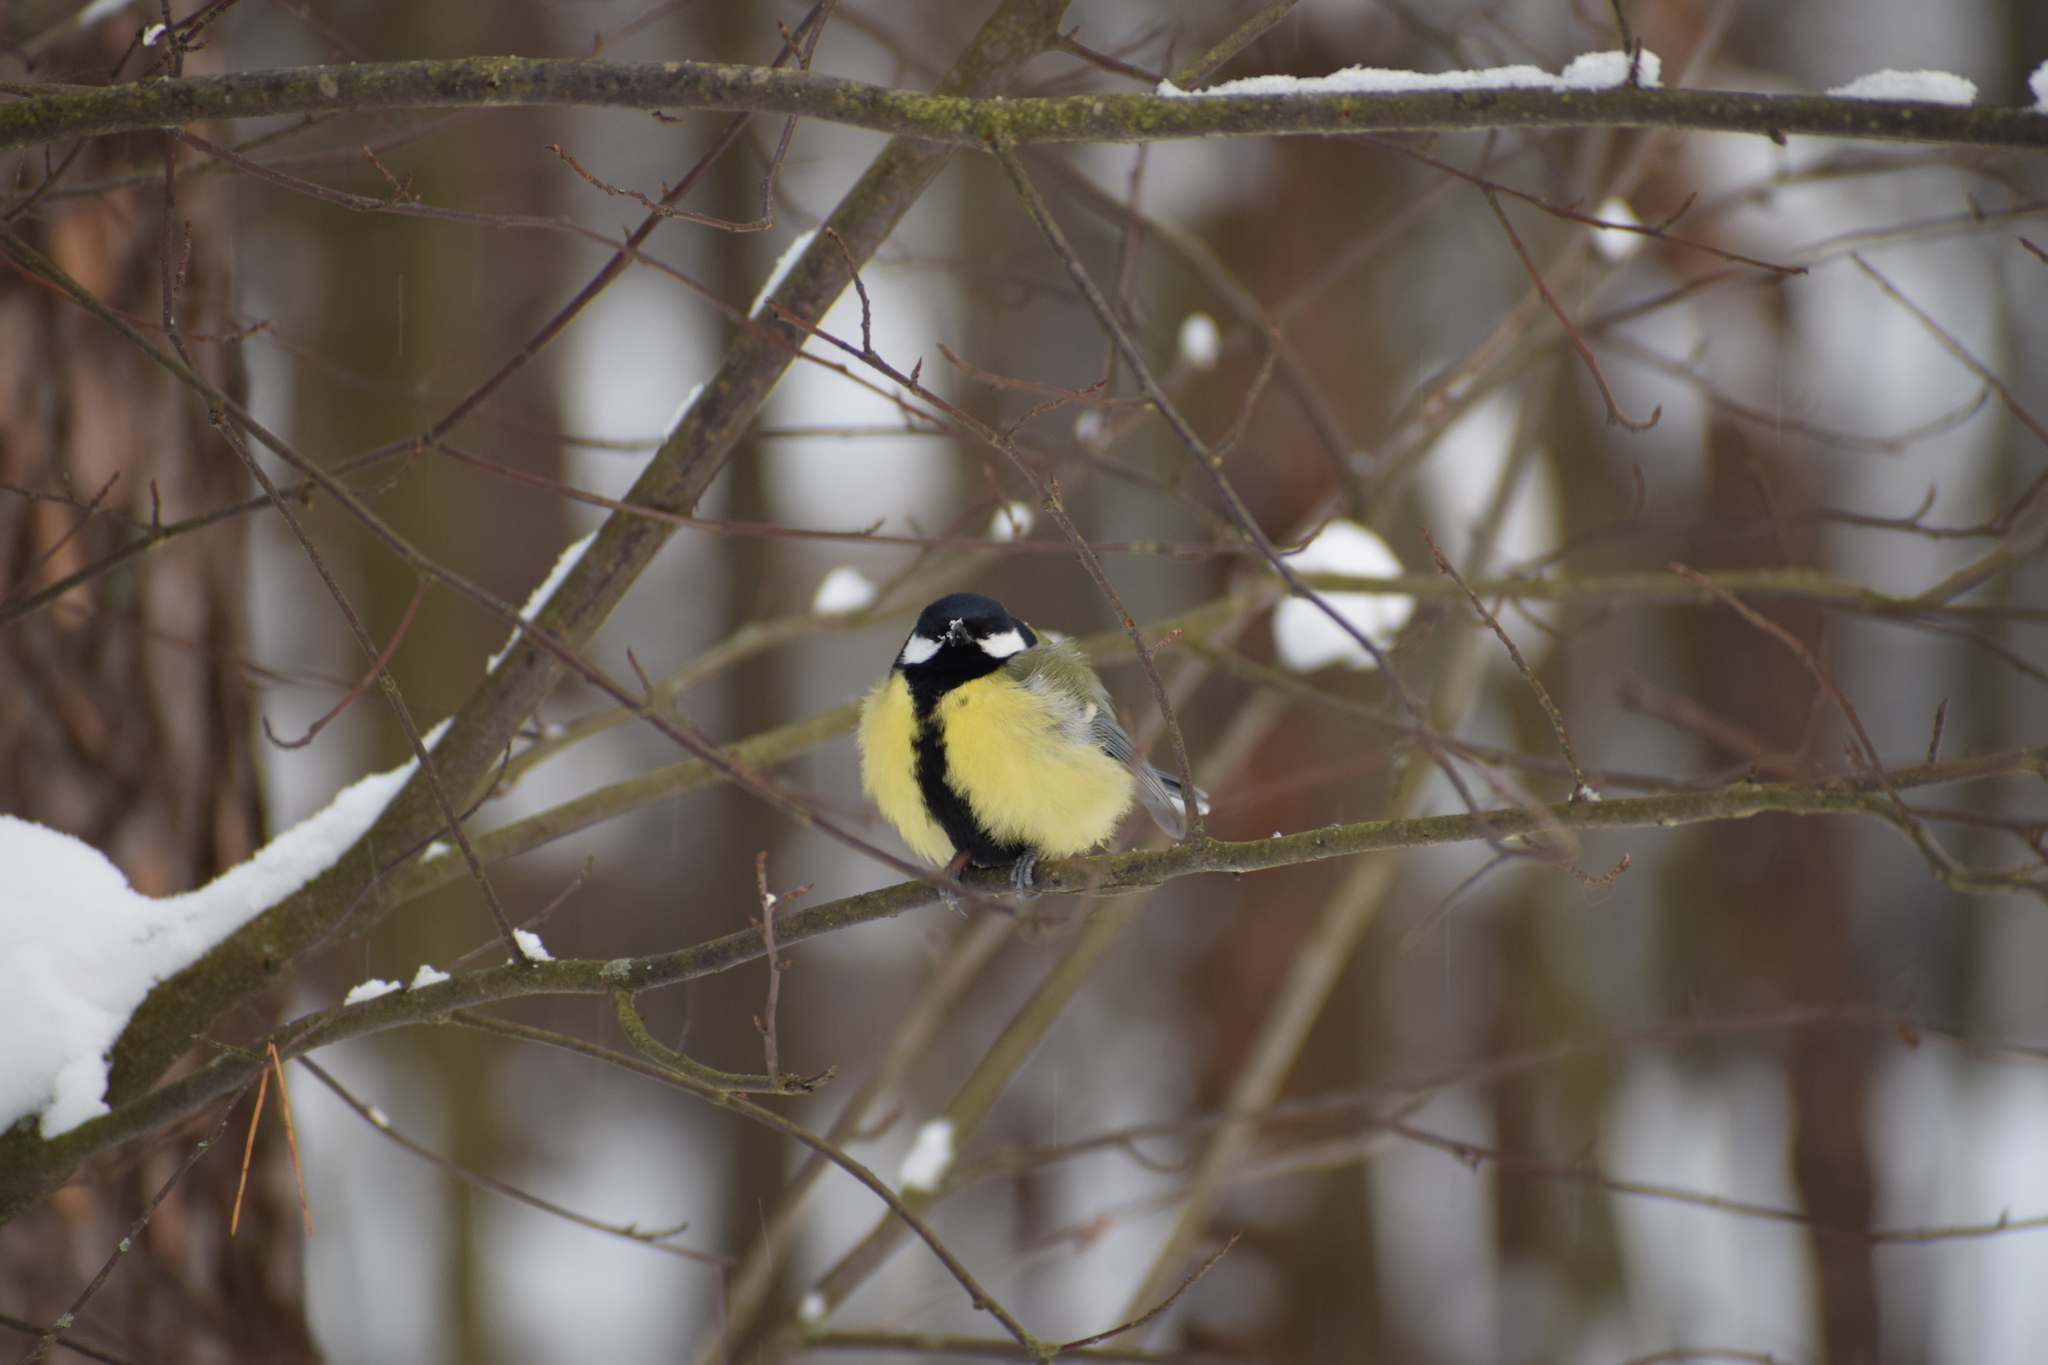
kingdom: Animalia
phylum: Chordata
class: Aves
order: Passeriformes
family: Paridae
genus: Parus
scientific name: Parus major
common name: Great tit
